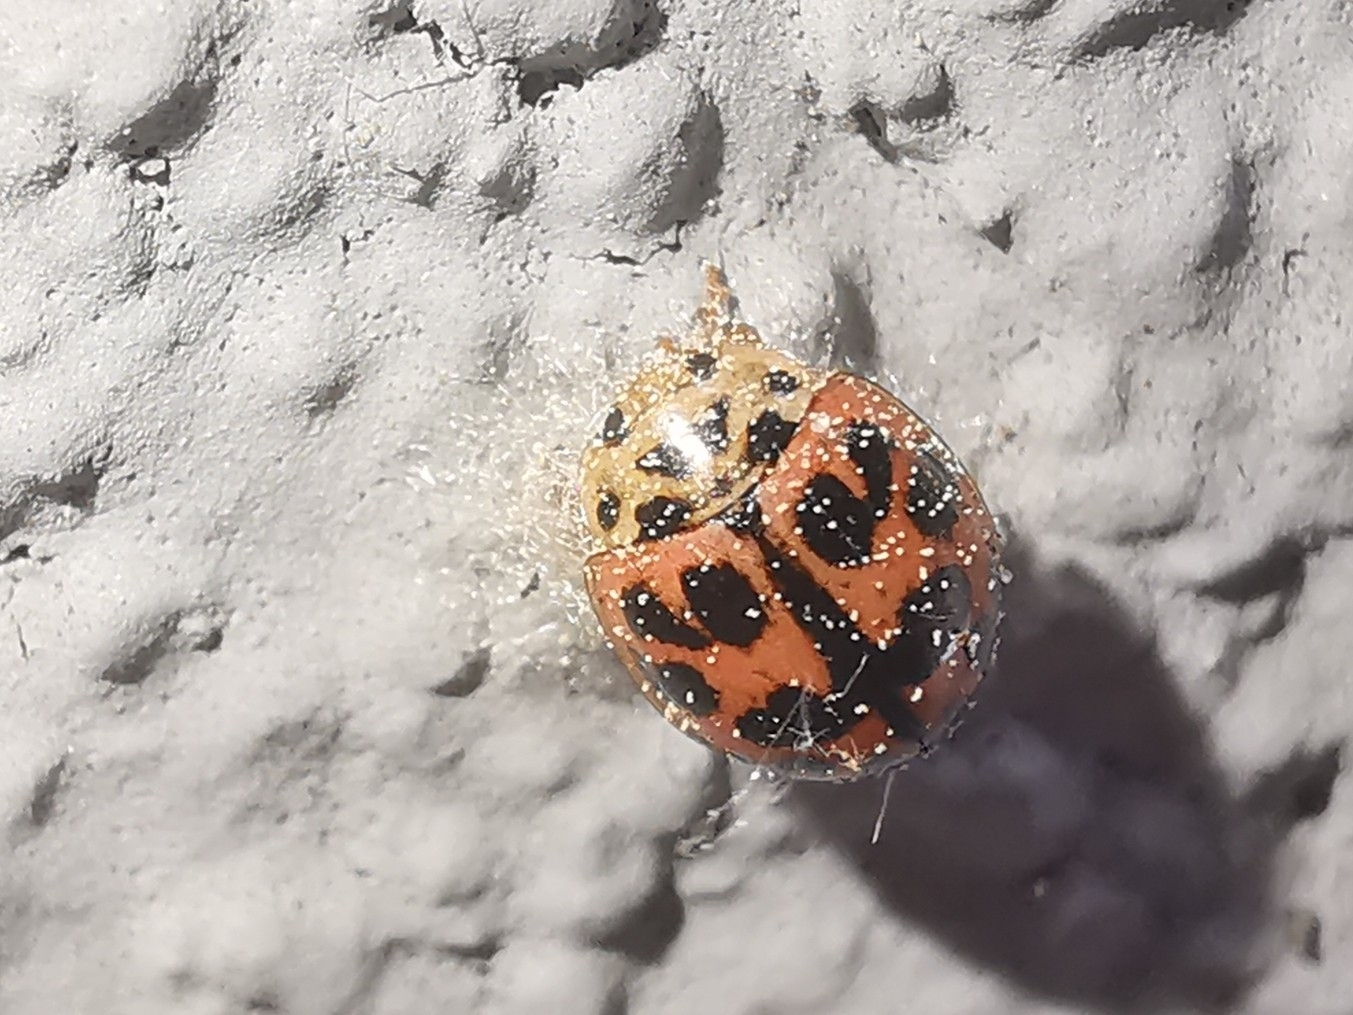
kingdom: Animalia
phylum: Arthropoda
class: Insecta
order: Hymenoptera
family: Braconidae
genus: Dinocampus
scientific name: Dinocampus coccinellae
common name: Braconid wasp
